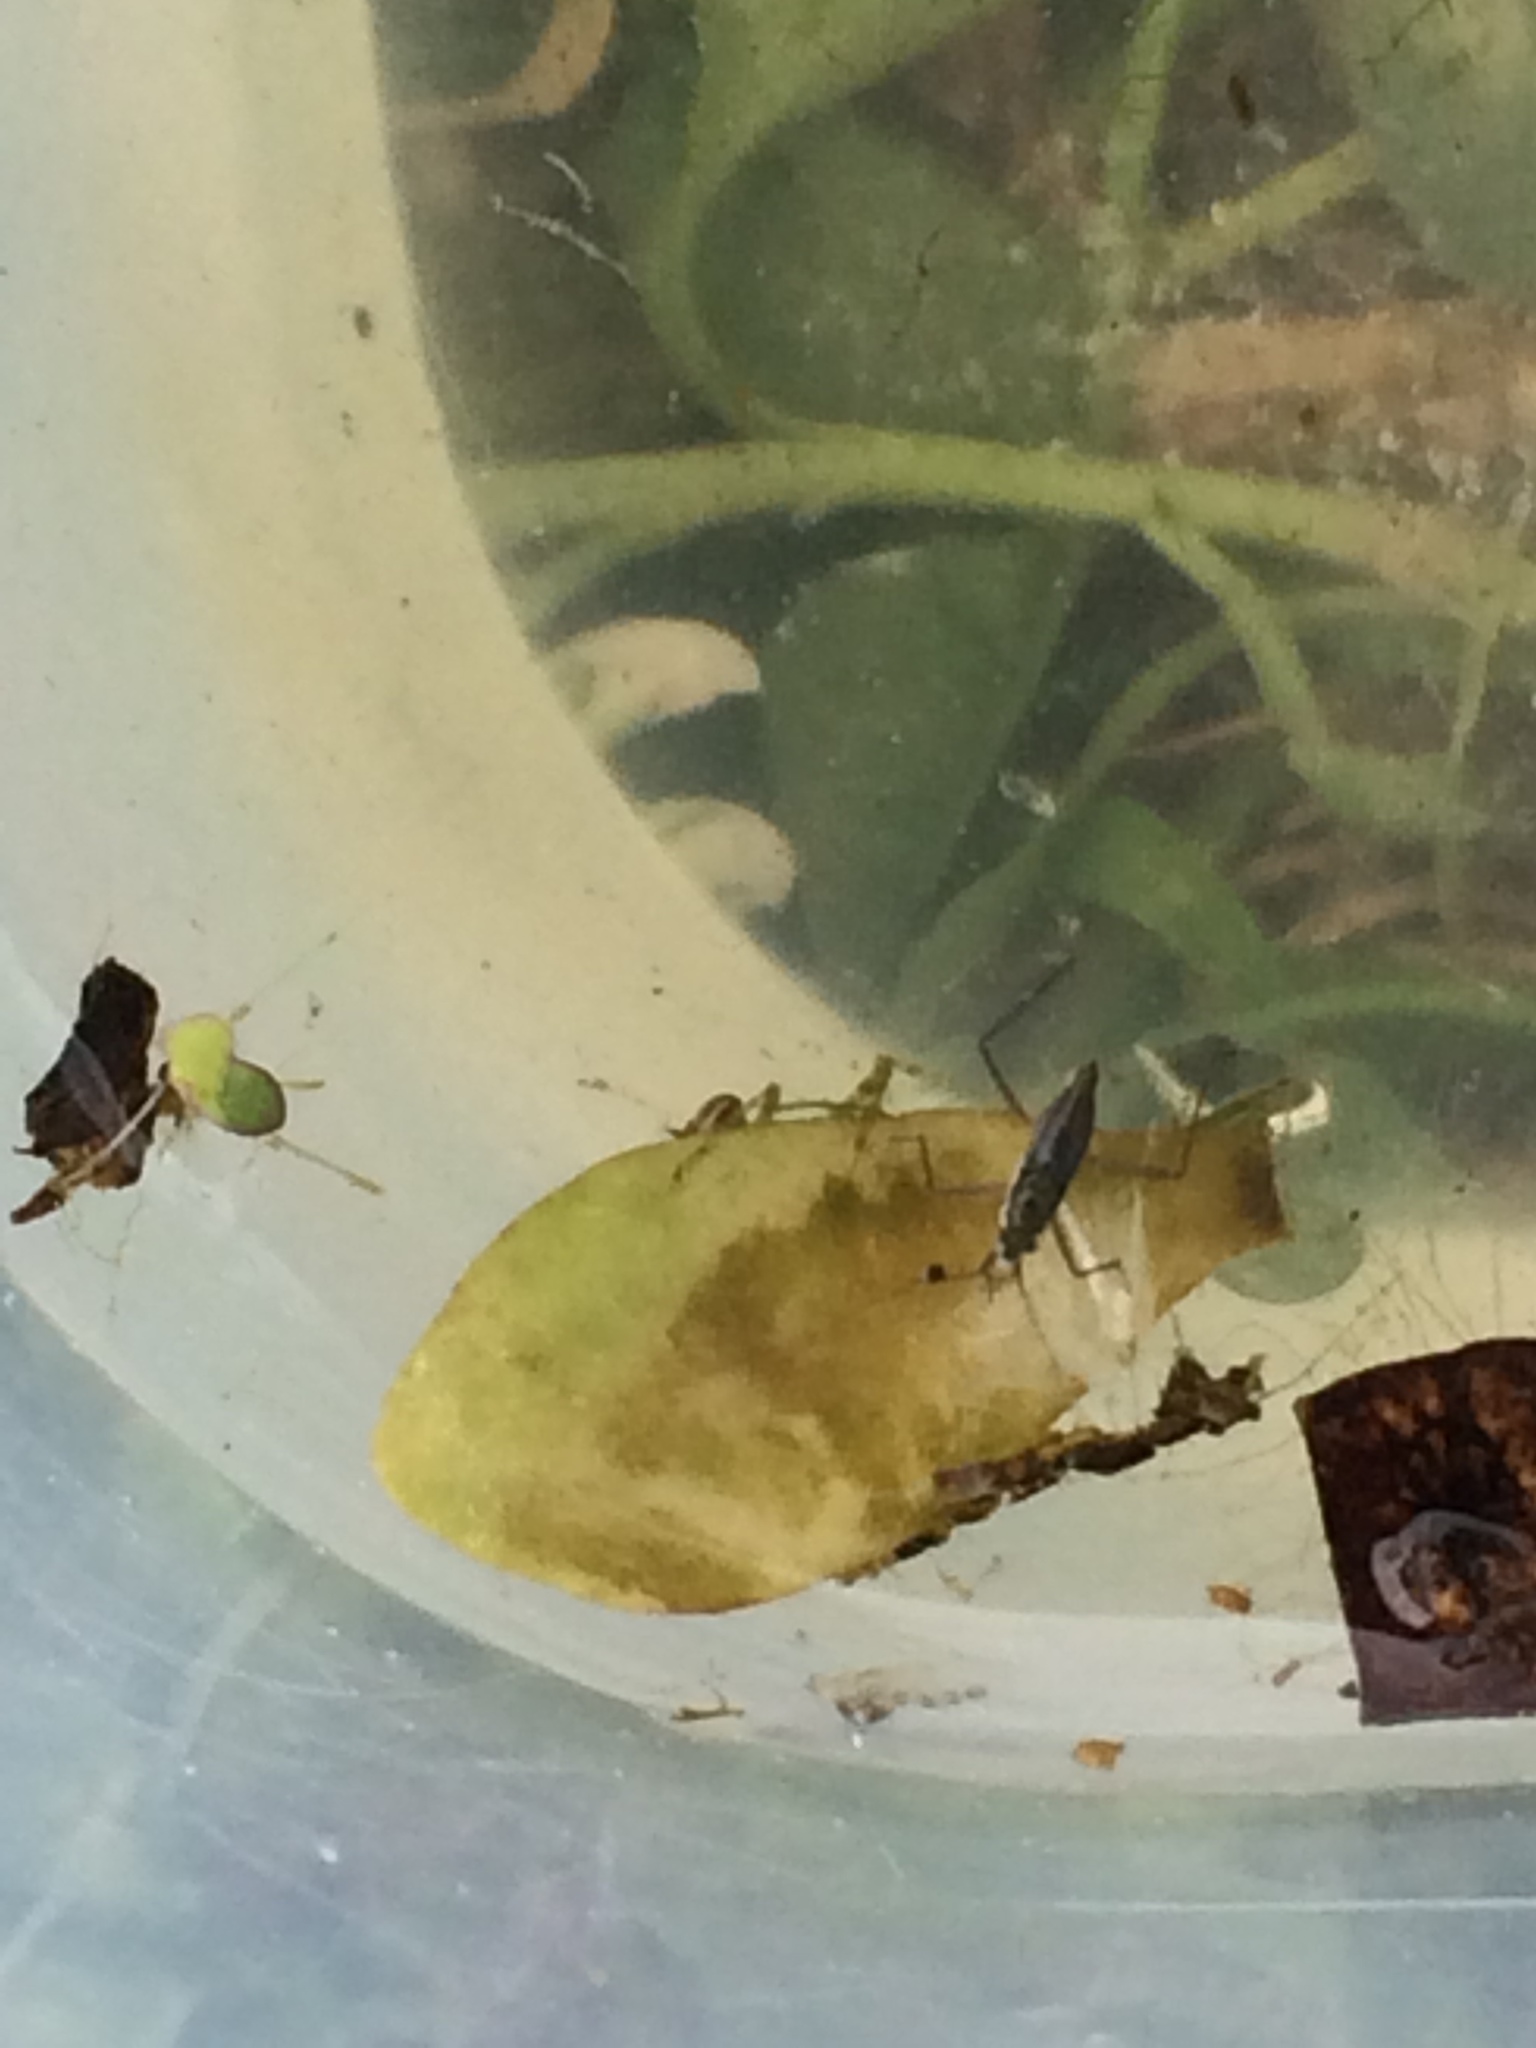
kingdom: Animalia
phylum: Arthropoda
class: Insecta
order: Hemiptera
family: Mesoveliidae
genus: Mesovelia
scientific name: Mesovelia
